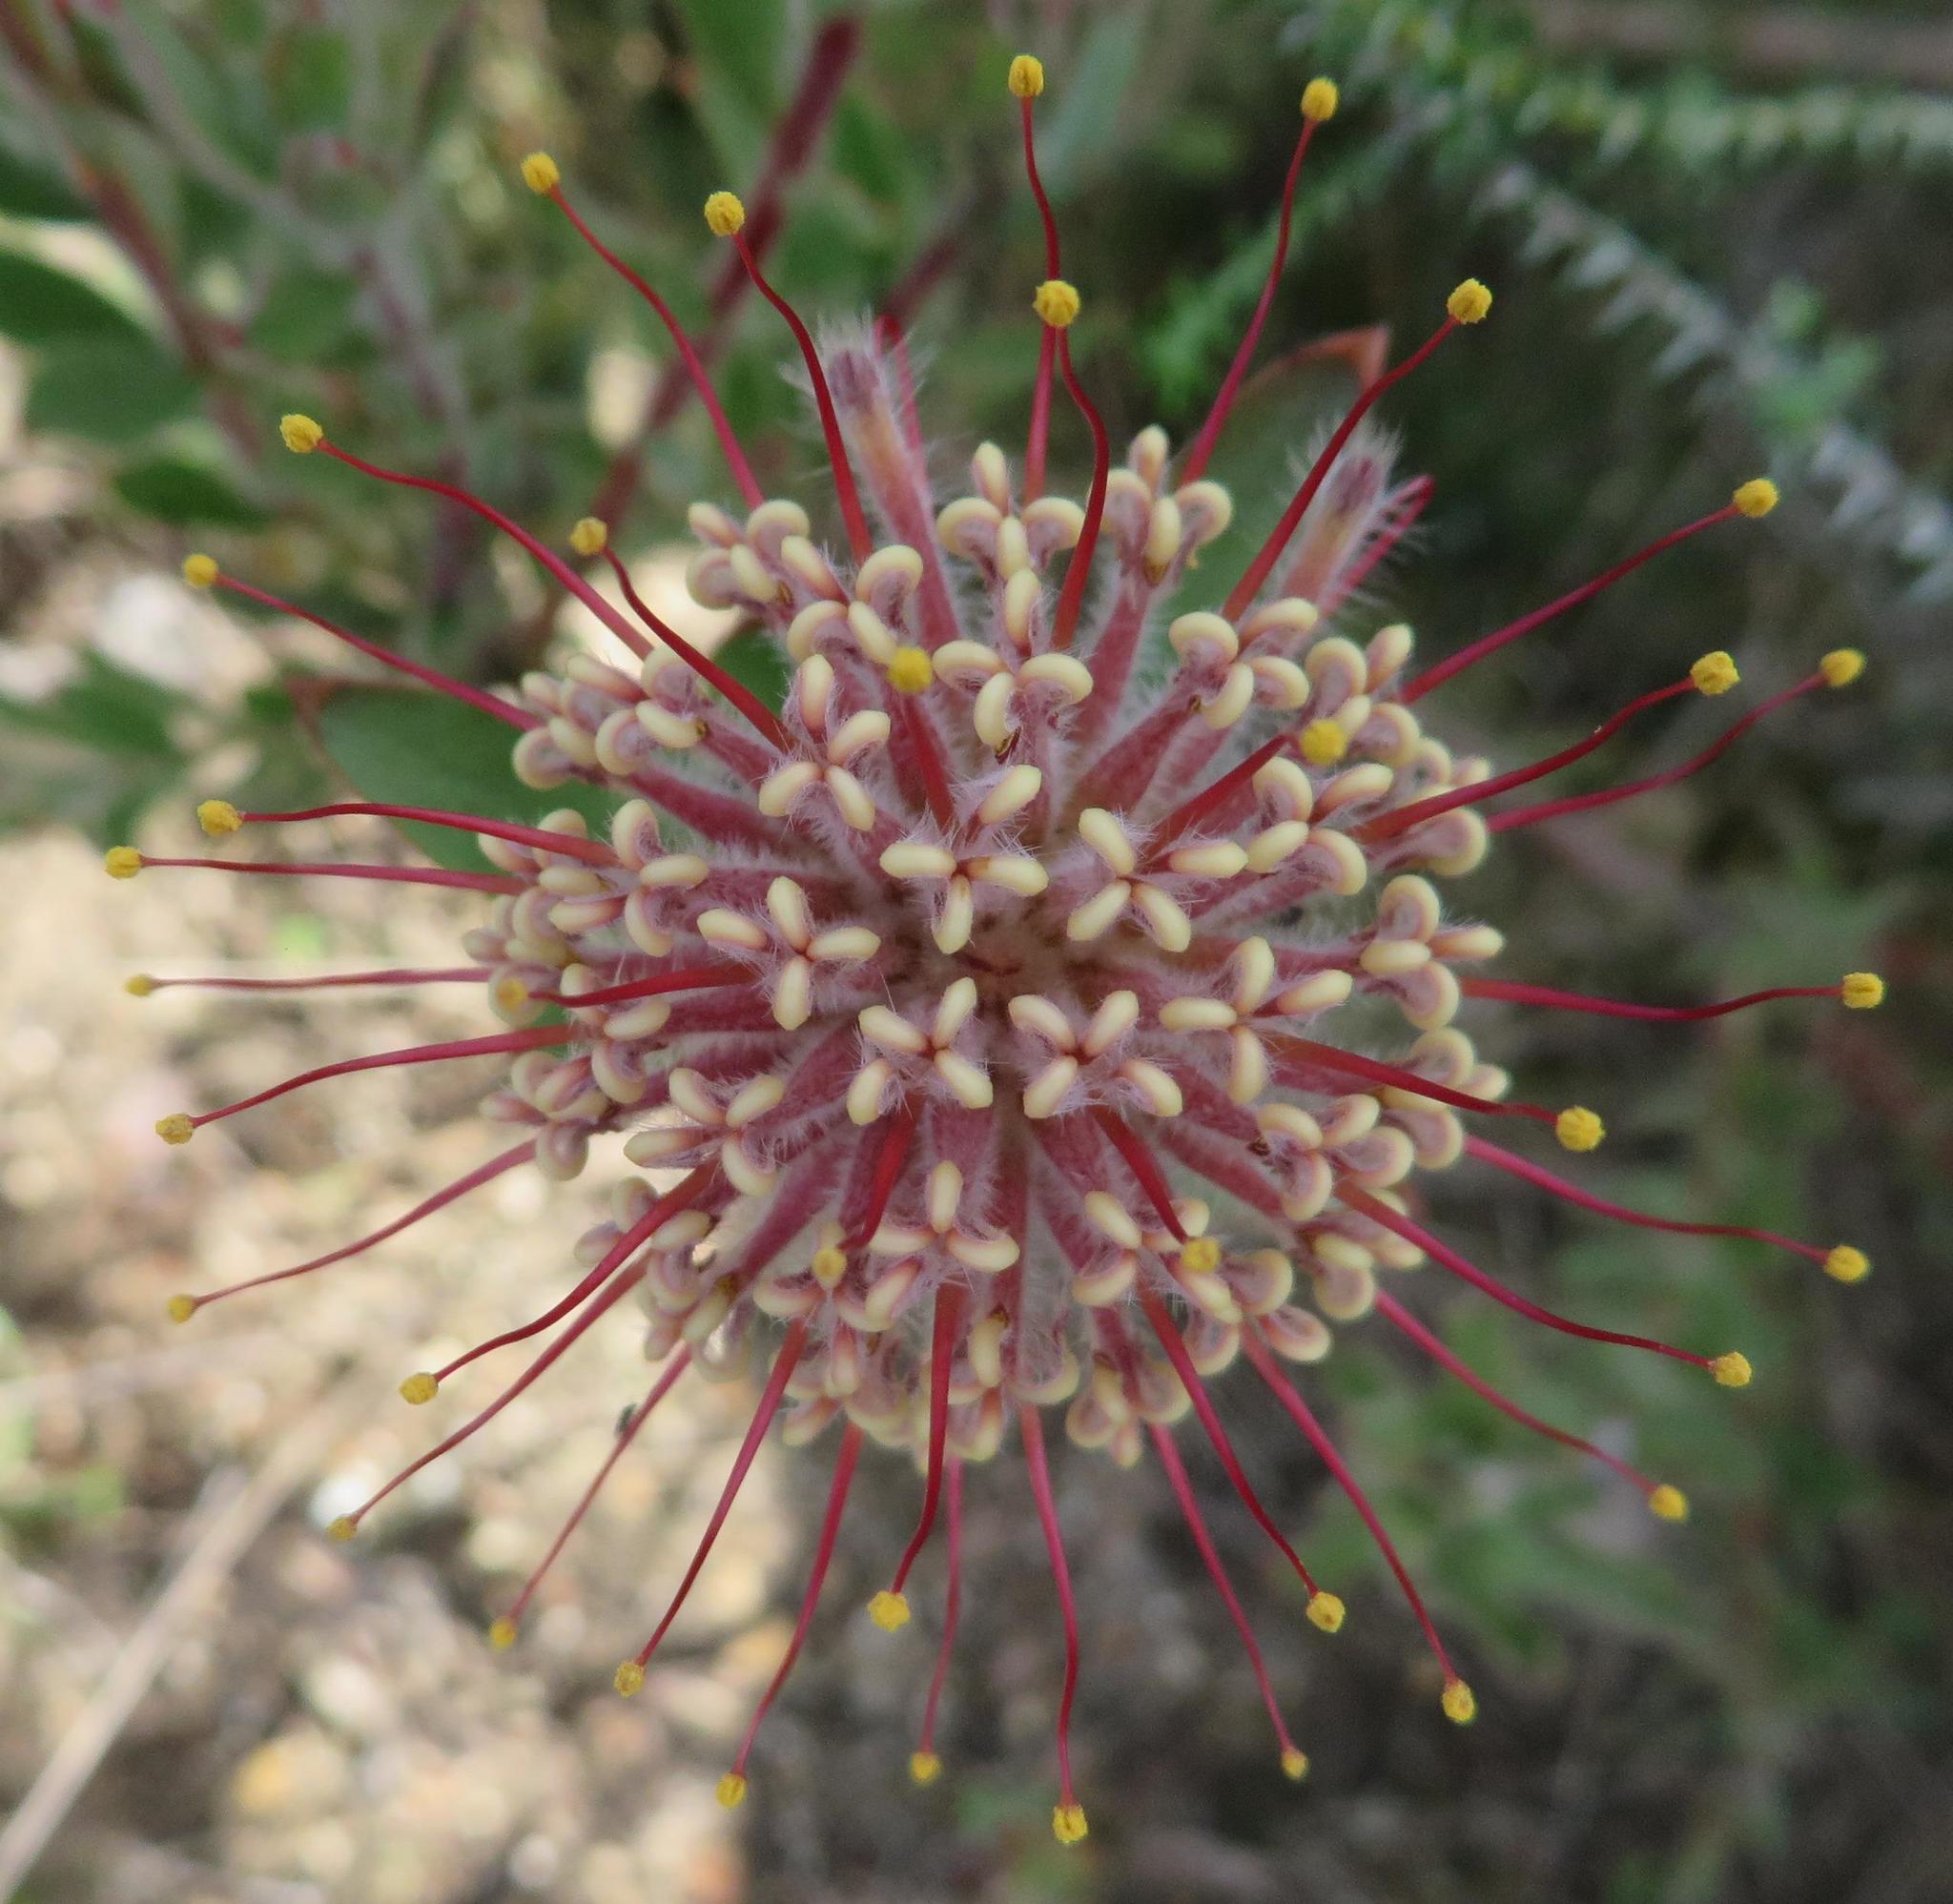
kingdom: Plantae
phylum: Tracheophyta
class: Magnoliopsida
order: Proteales
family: Proteaceae
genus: Leucospermum
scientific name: Leucospermum calligerum
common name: Arid pincushion
